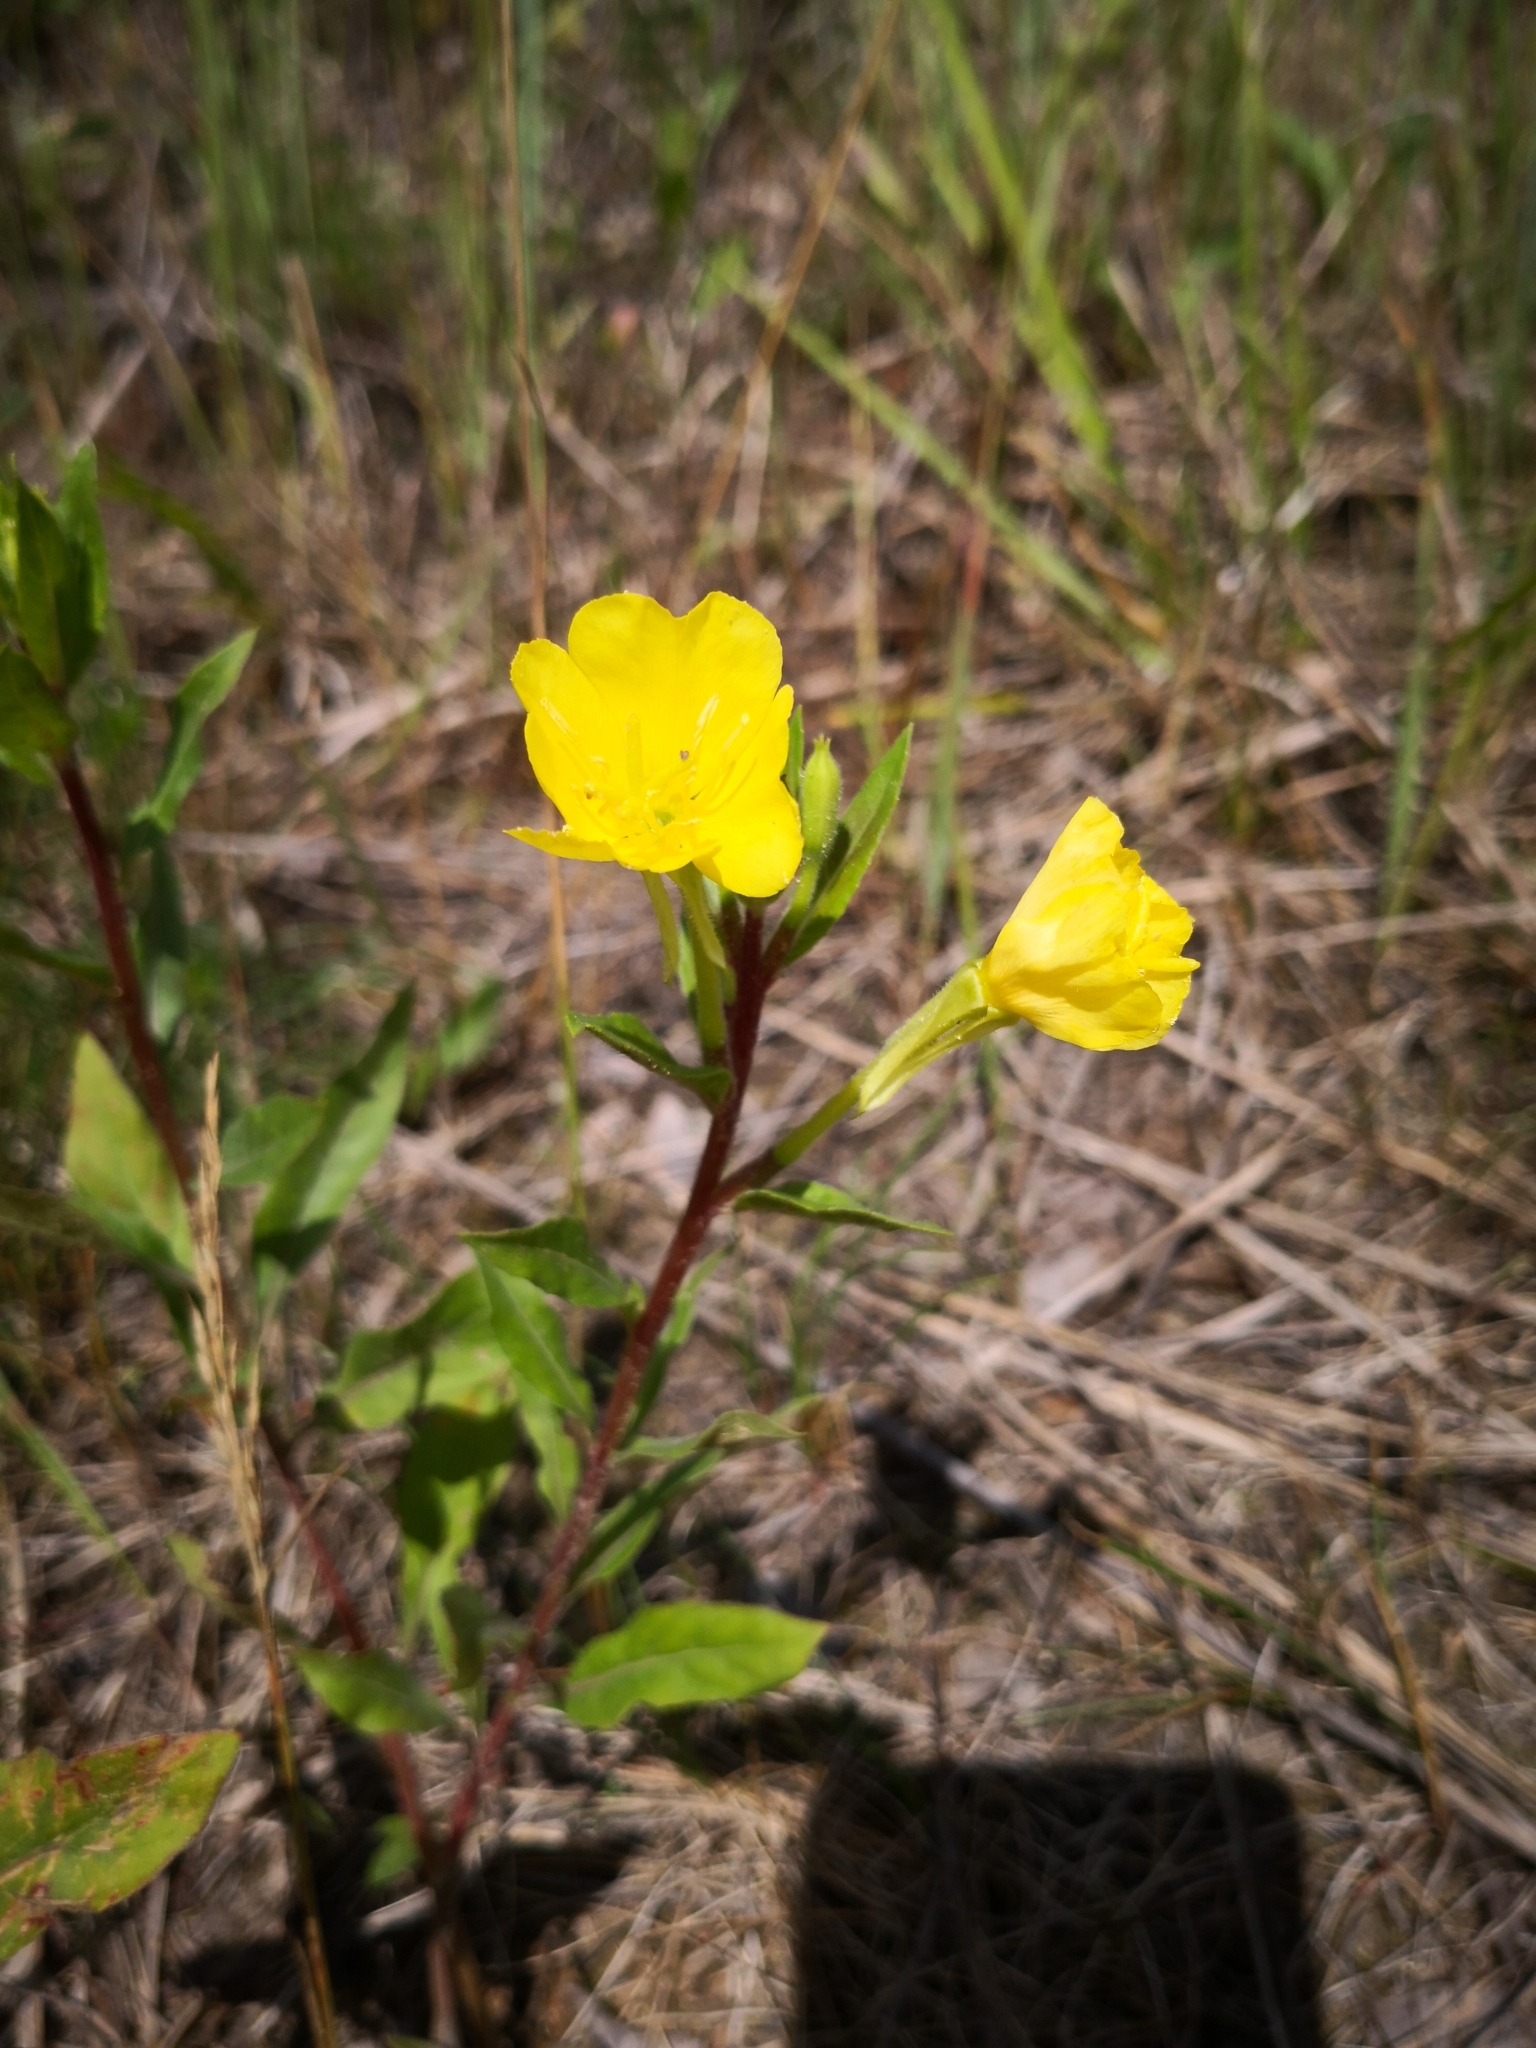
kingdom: Plantae
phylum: Tracheophyta
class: Magnoliopsida
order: Myrtales
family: Onagraceae
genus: Oenothera
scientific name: Oenothera rubricaulis
